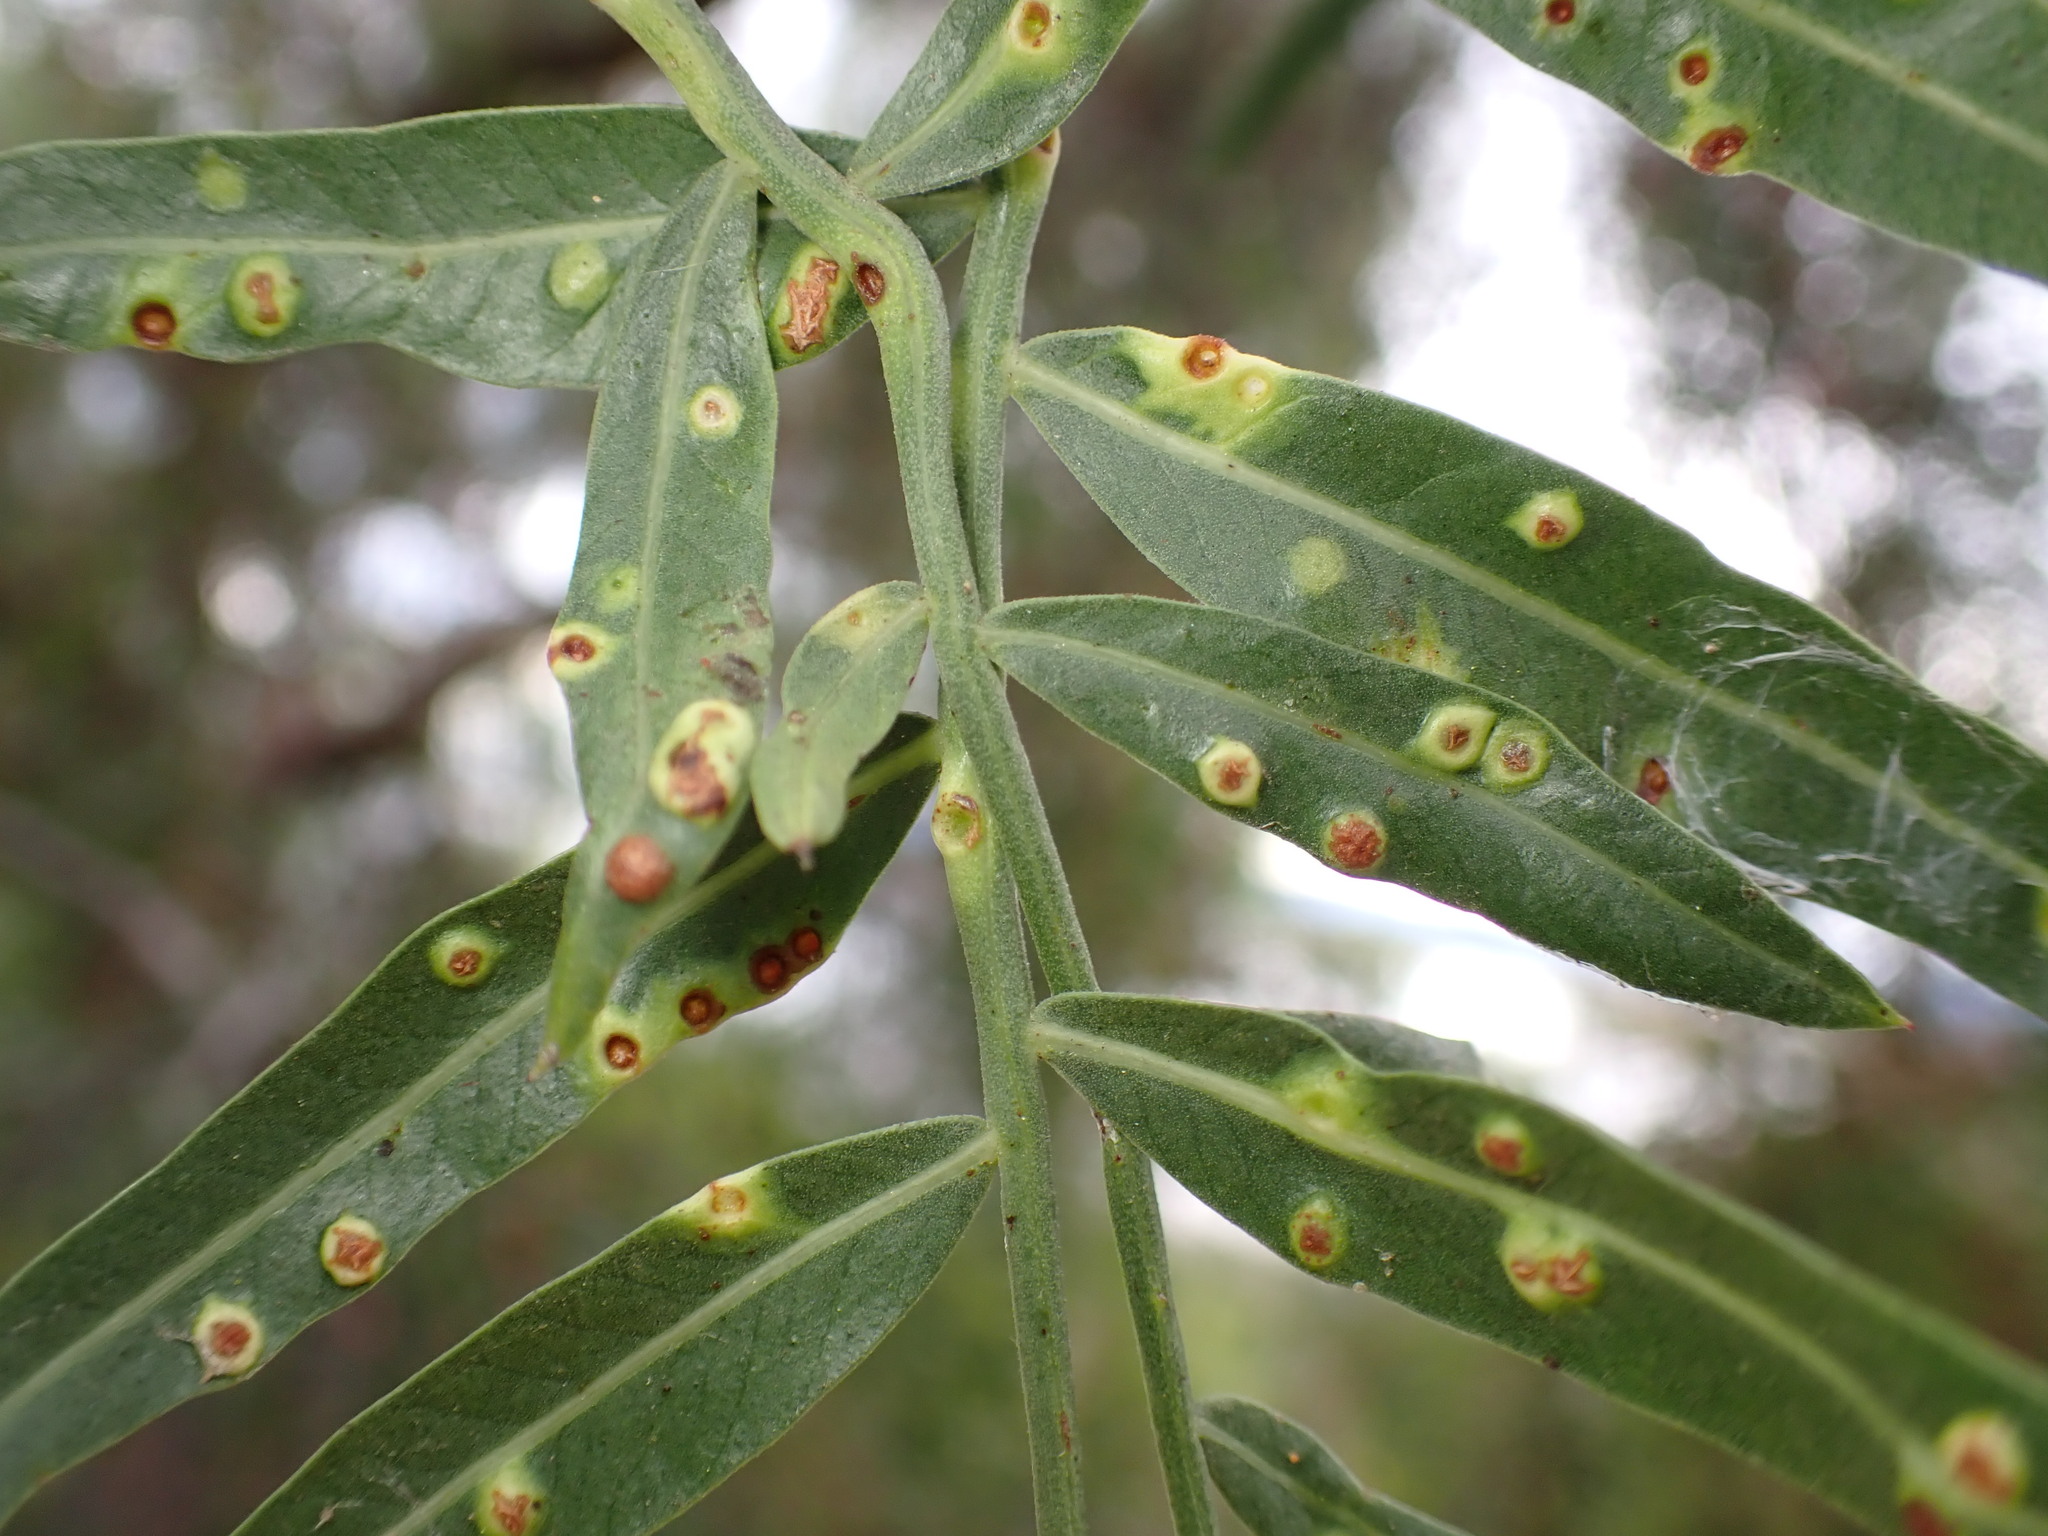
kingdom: Animalia
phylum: Arthropoda
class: Insecta
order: Hemiptera
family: Calophyidae
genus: Calophya
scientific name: Calophya schini
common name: Pepper tree psyllid
